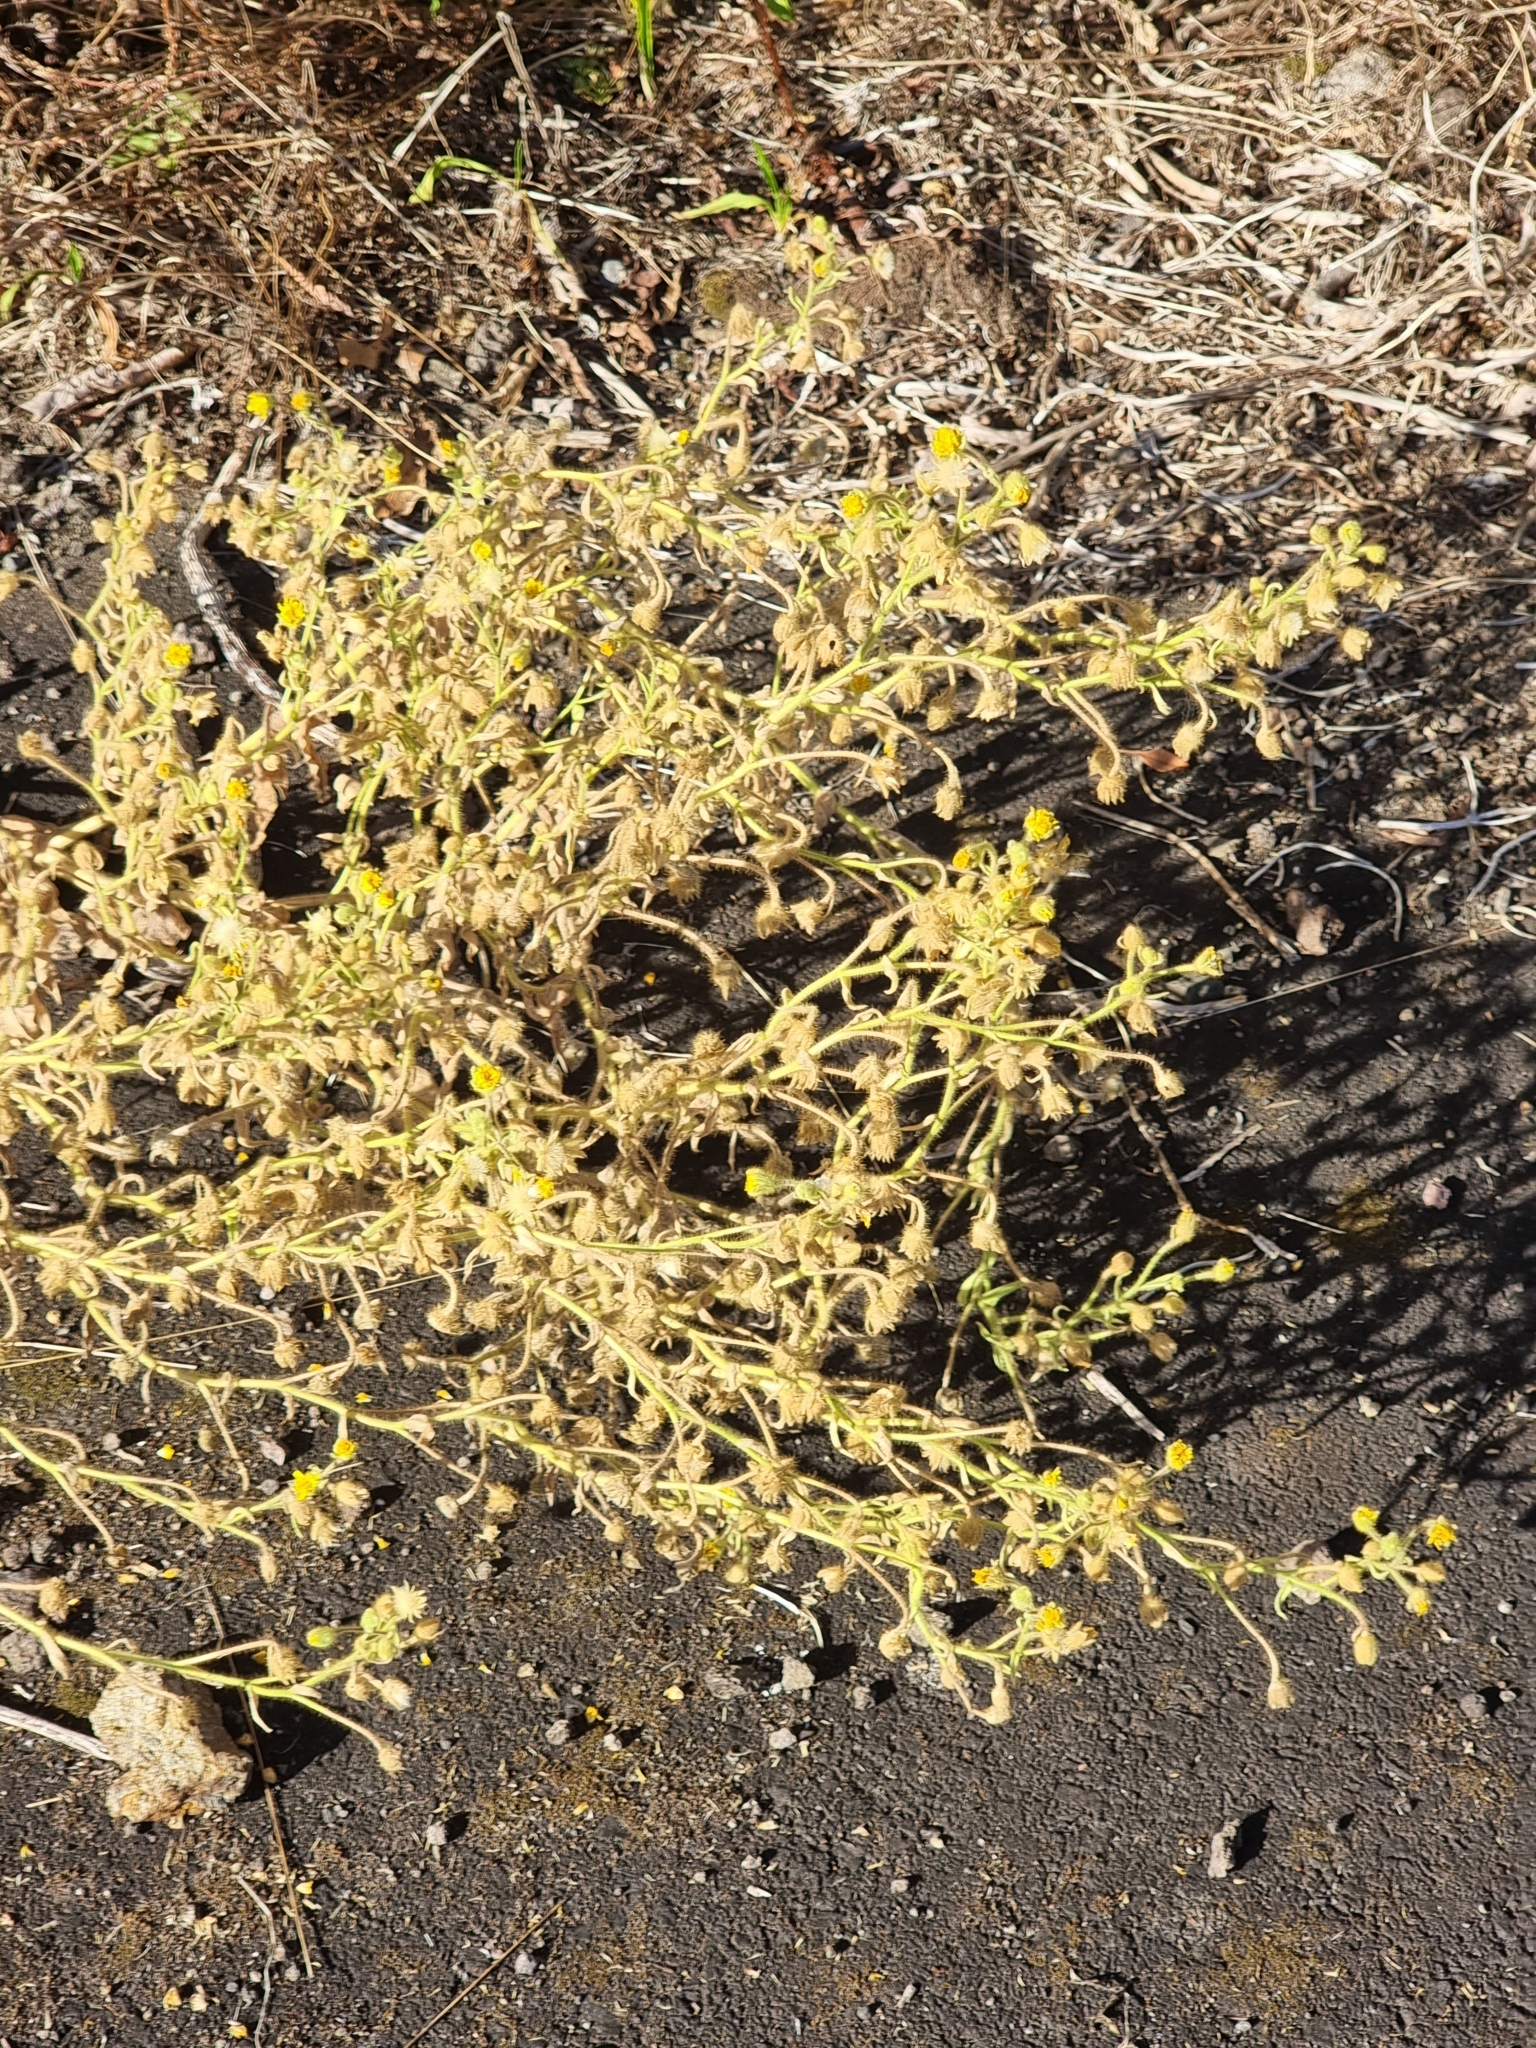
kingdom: Plantae
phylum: Tracheophyta
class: Magnoliopsida
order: Asterales
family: Asteraceae
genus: Andryala
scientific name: Andryala glandulosa
